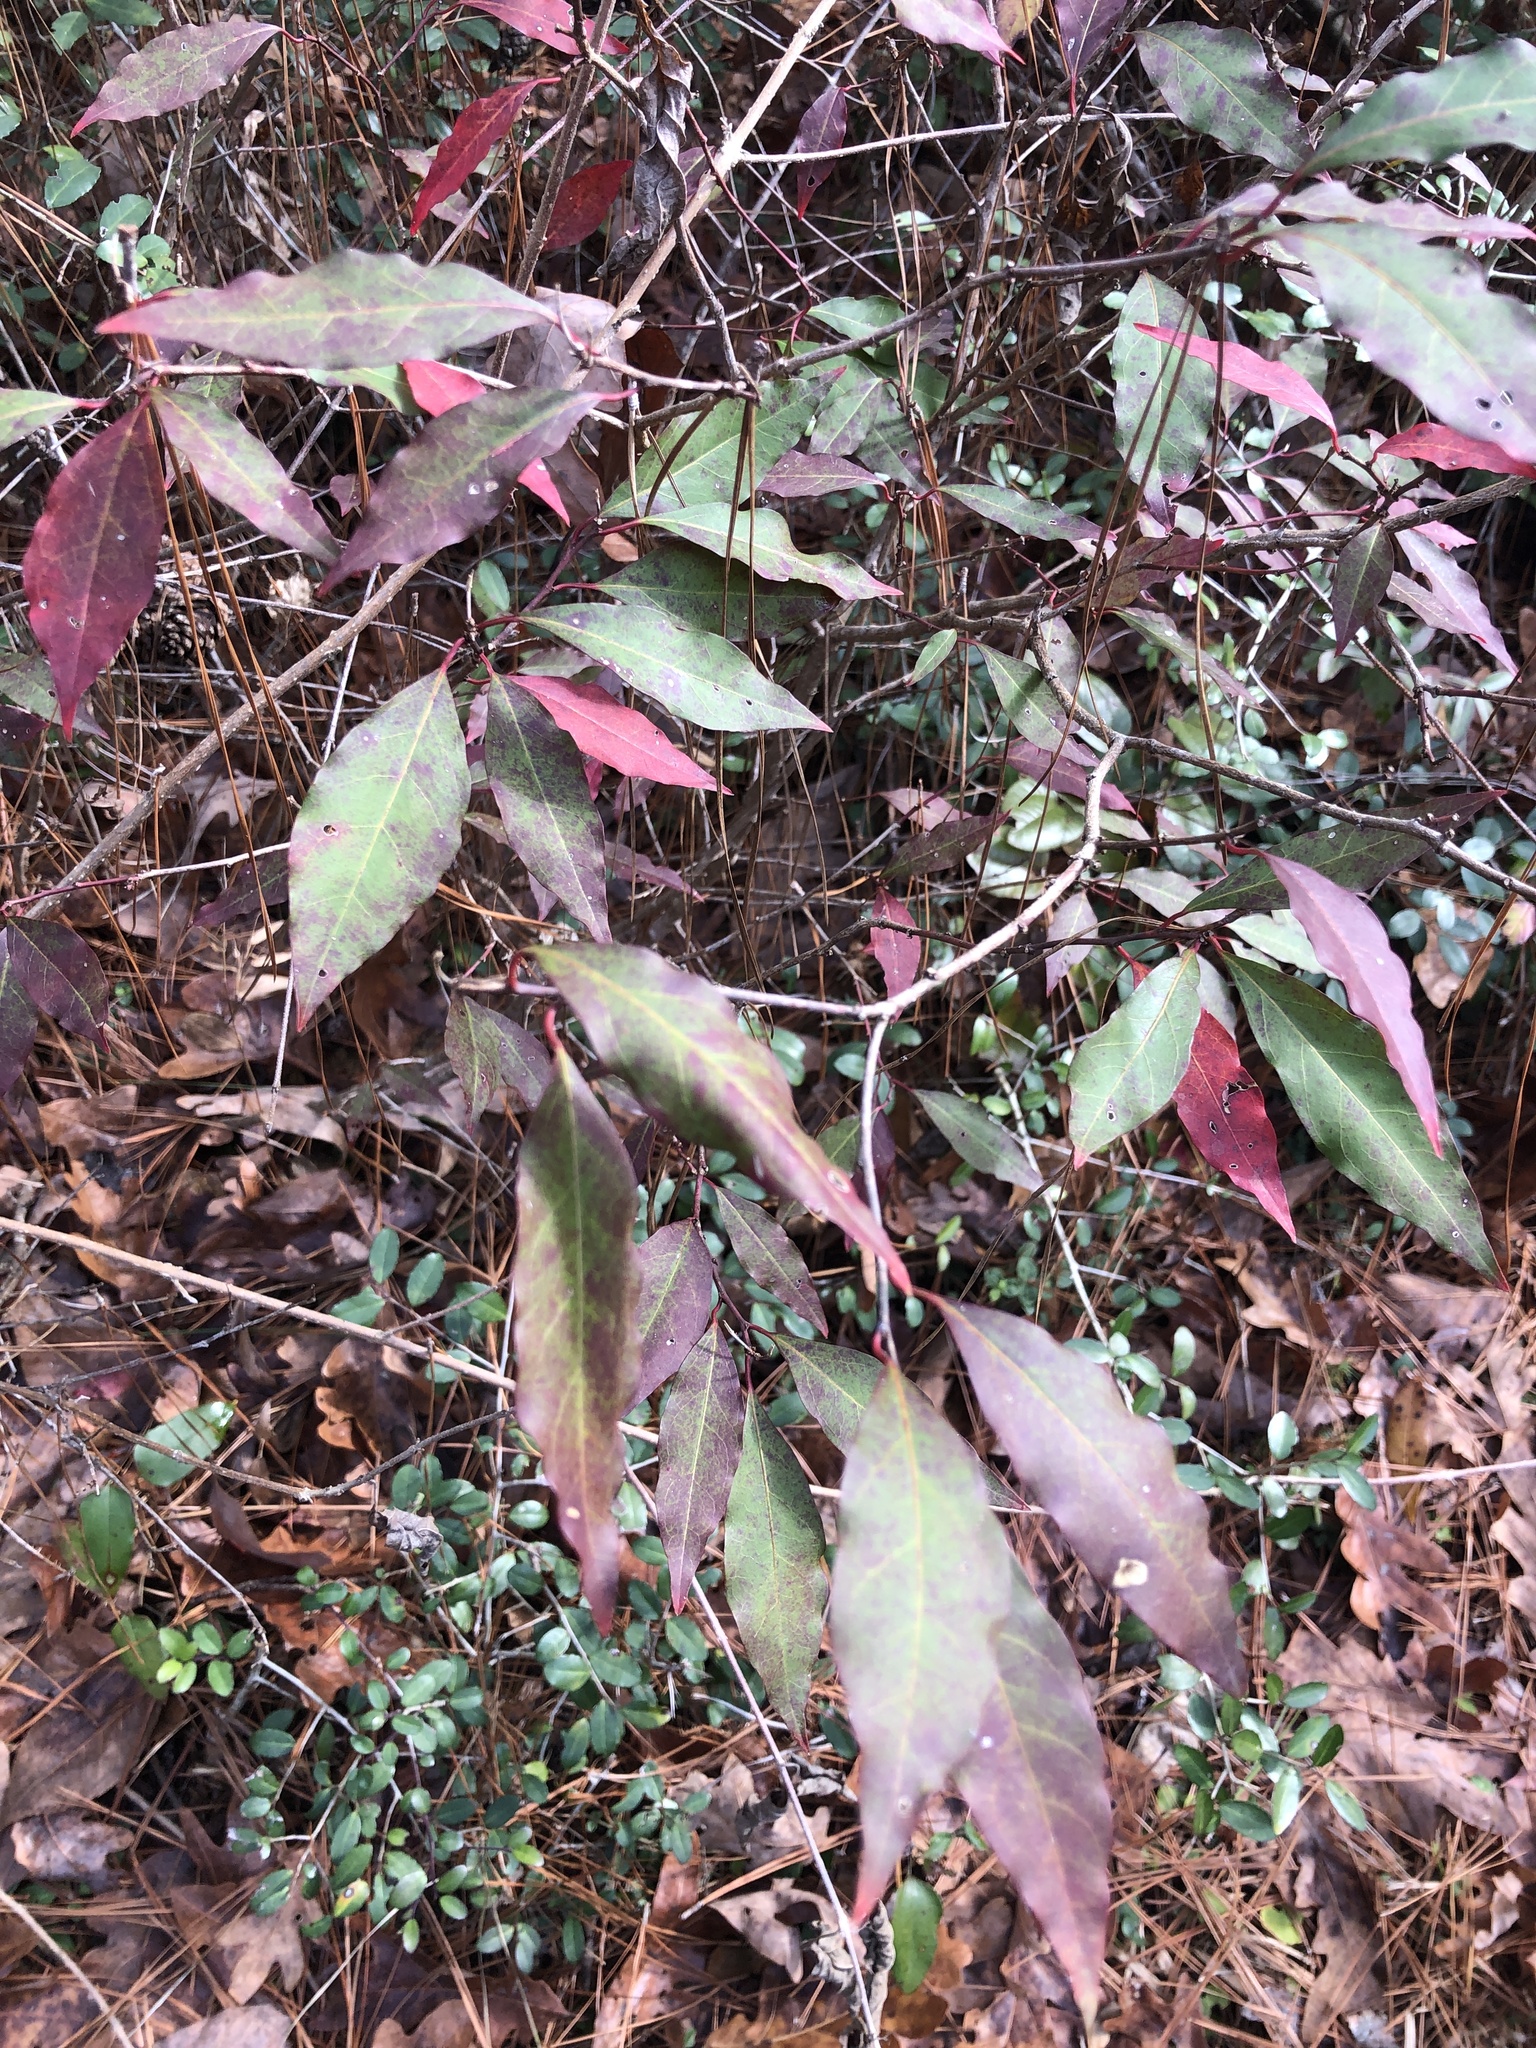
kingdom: Plantae
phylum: Tracheophyta
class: Magnoliopsida
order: Malpighiales
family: Euphorbiaceae
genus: Ditrysinia
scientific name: Ditrysinia fruticosa
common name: Gulf sebastian-bush
